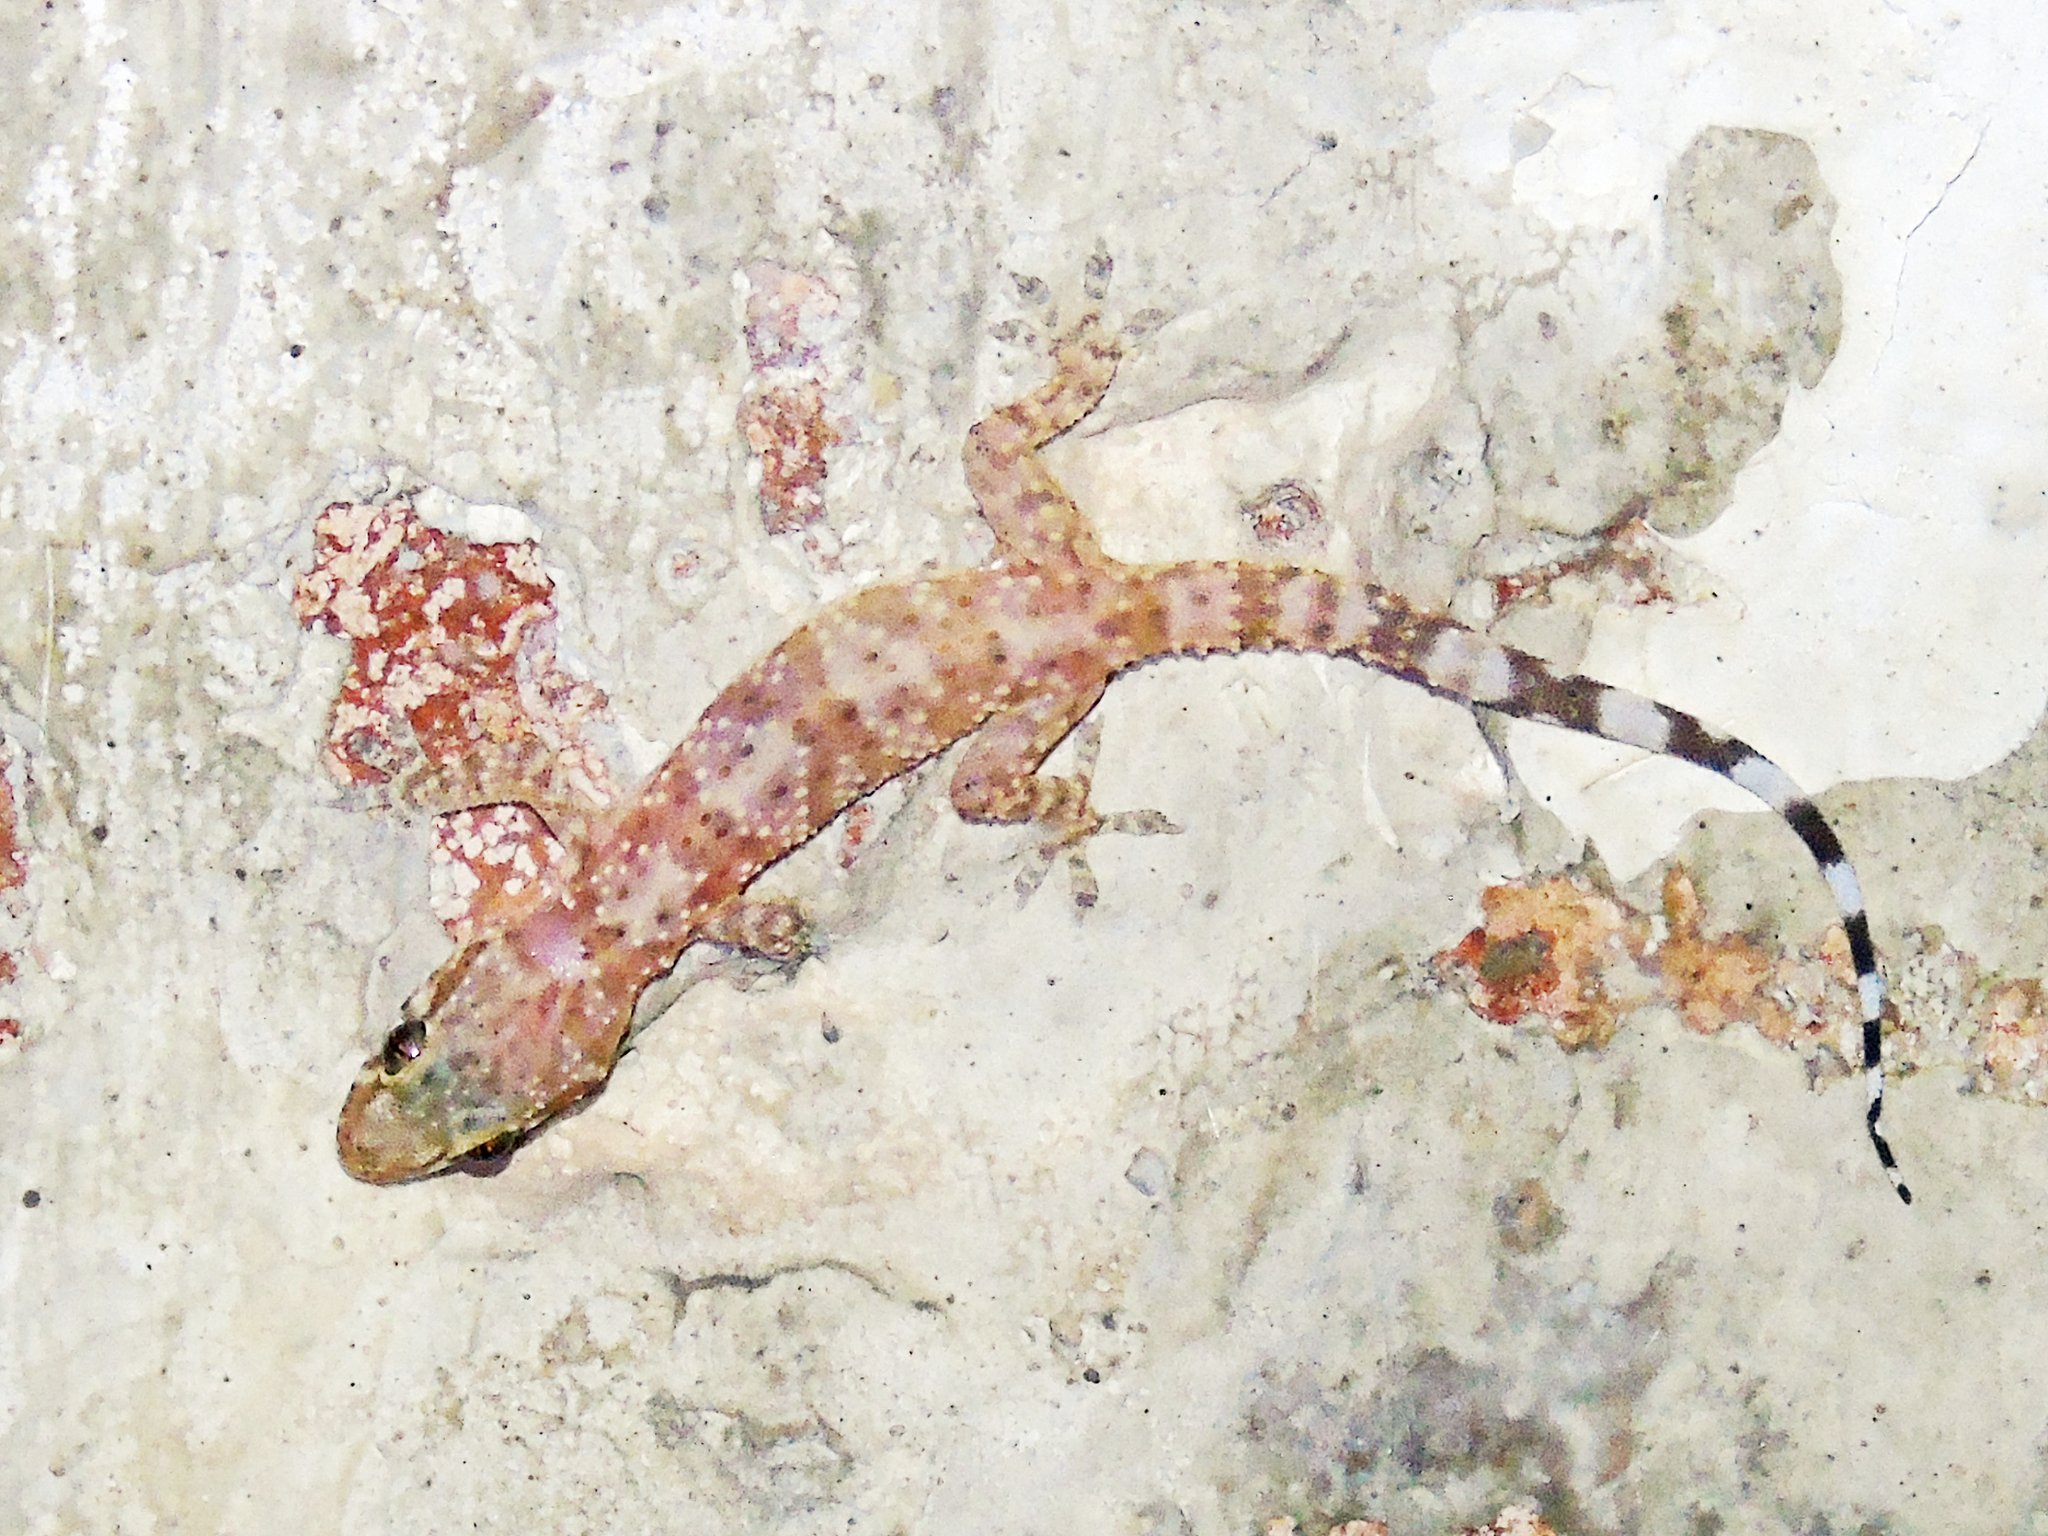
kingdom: Animalia
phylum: Chordata
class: Squamata
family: Gekkonidae
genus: Hemidactylus
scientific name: Hemidactylus turcicus
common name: Turkish gecko
